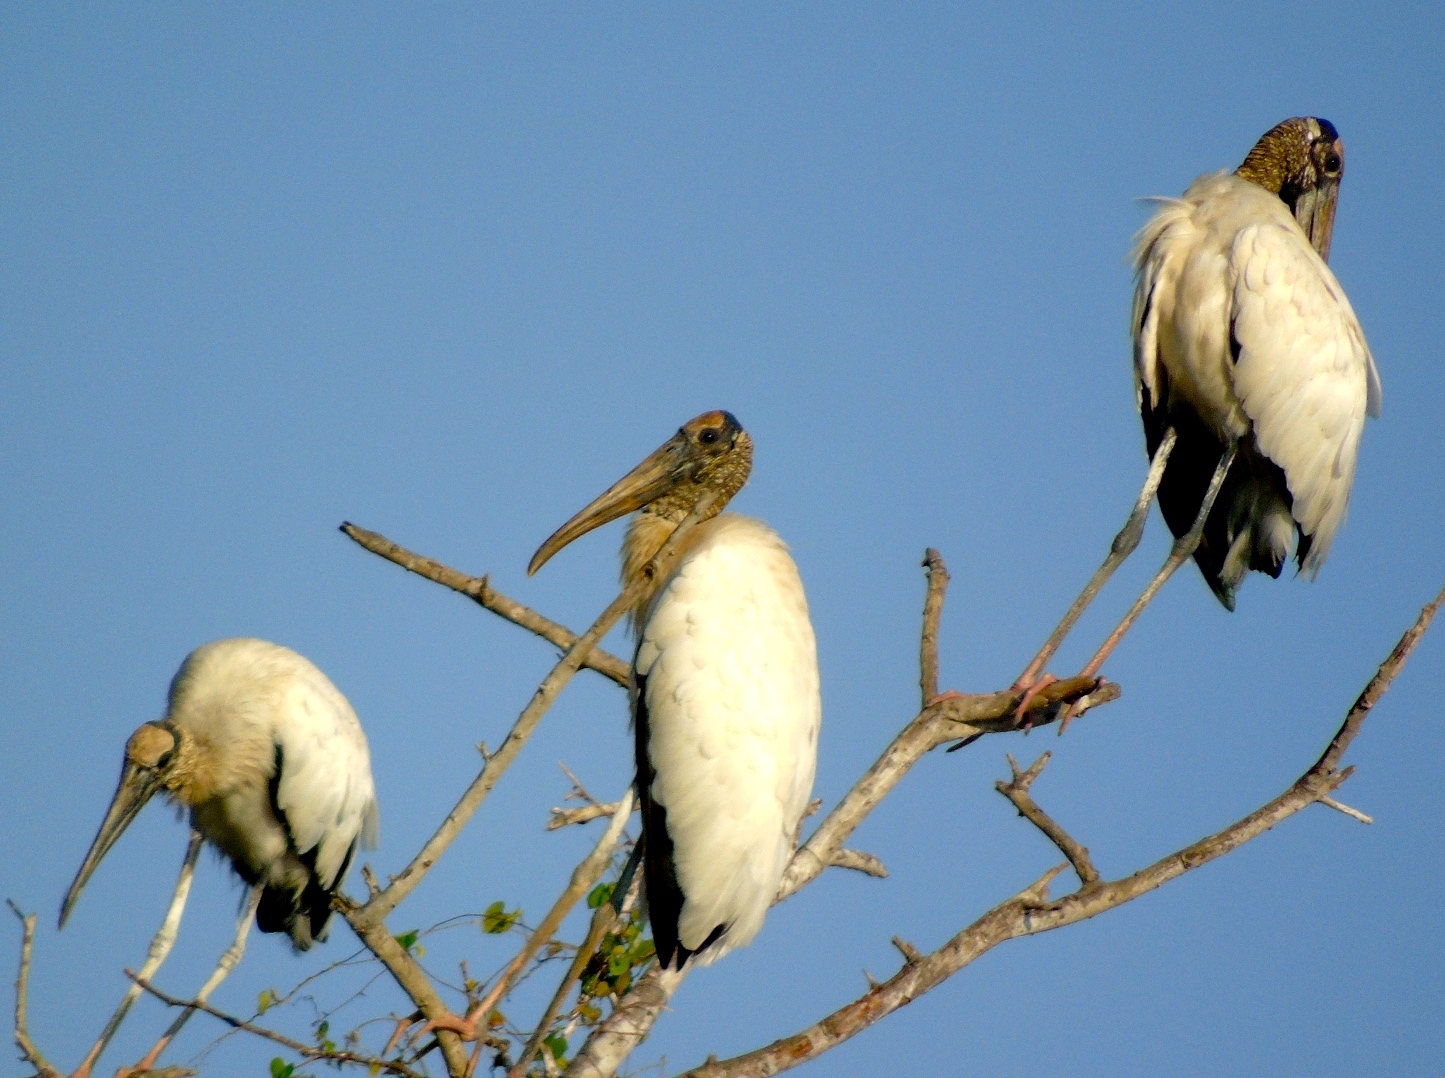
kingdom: Animalia
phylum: Chordata
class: Aves
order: Ciconiiformes
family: Ciconiidae
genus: Mycteria
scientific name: Mycteria americana
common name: Wood stork
